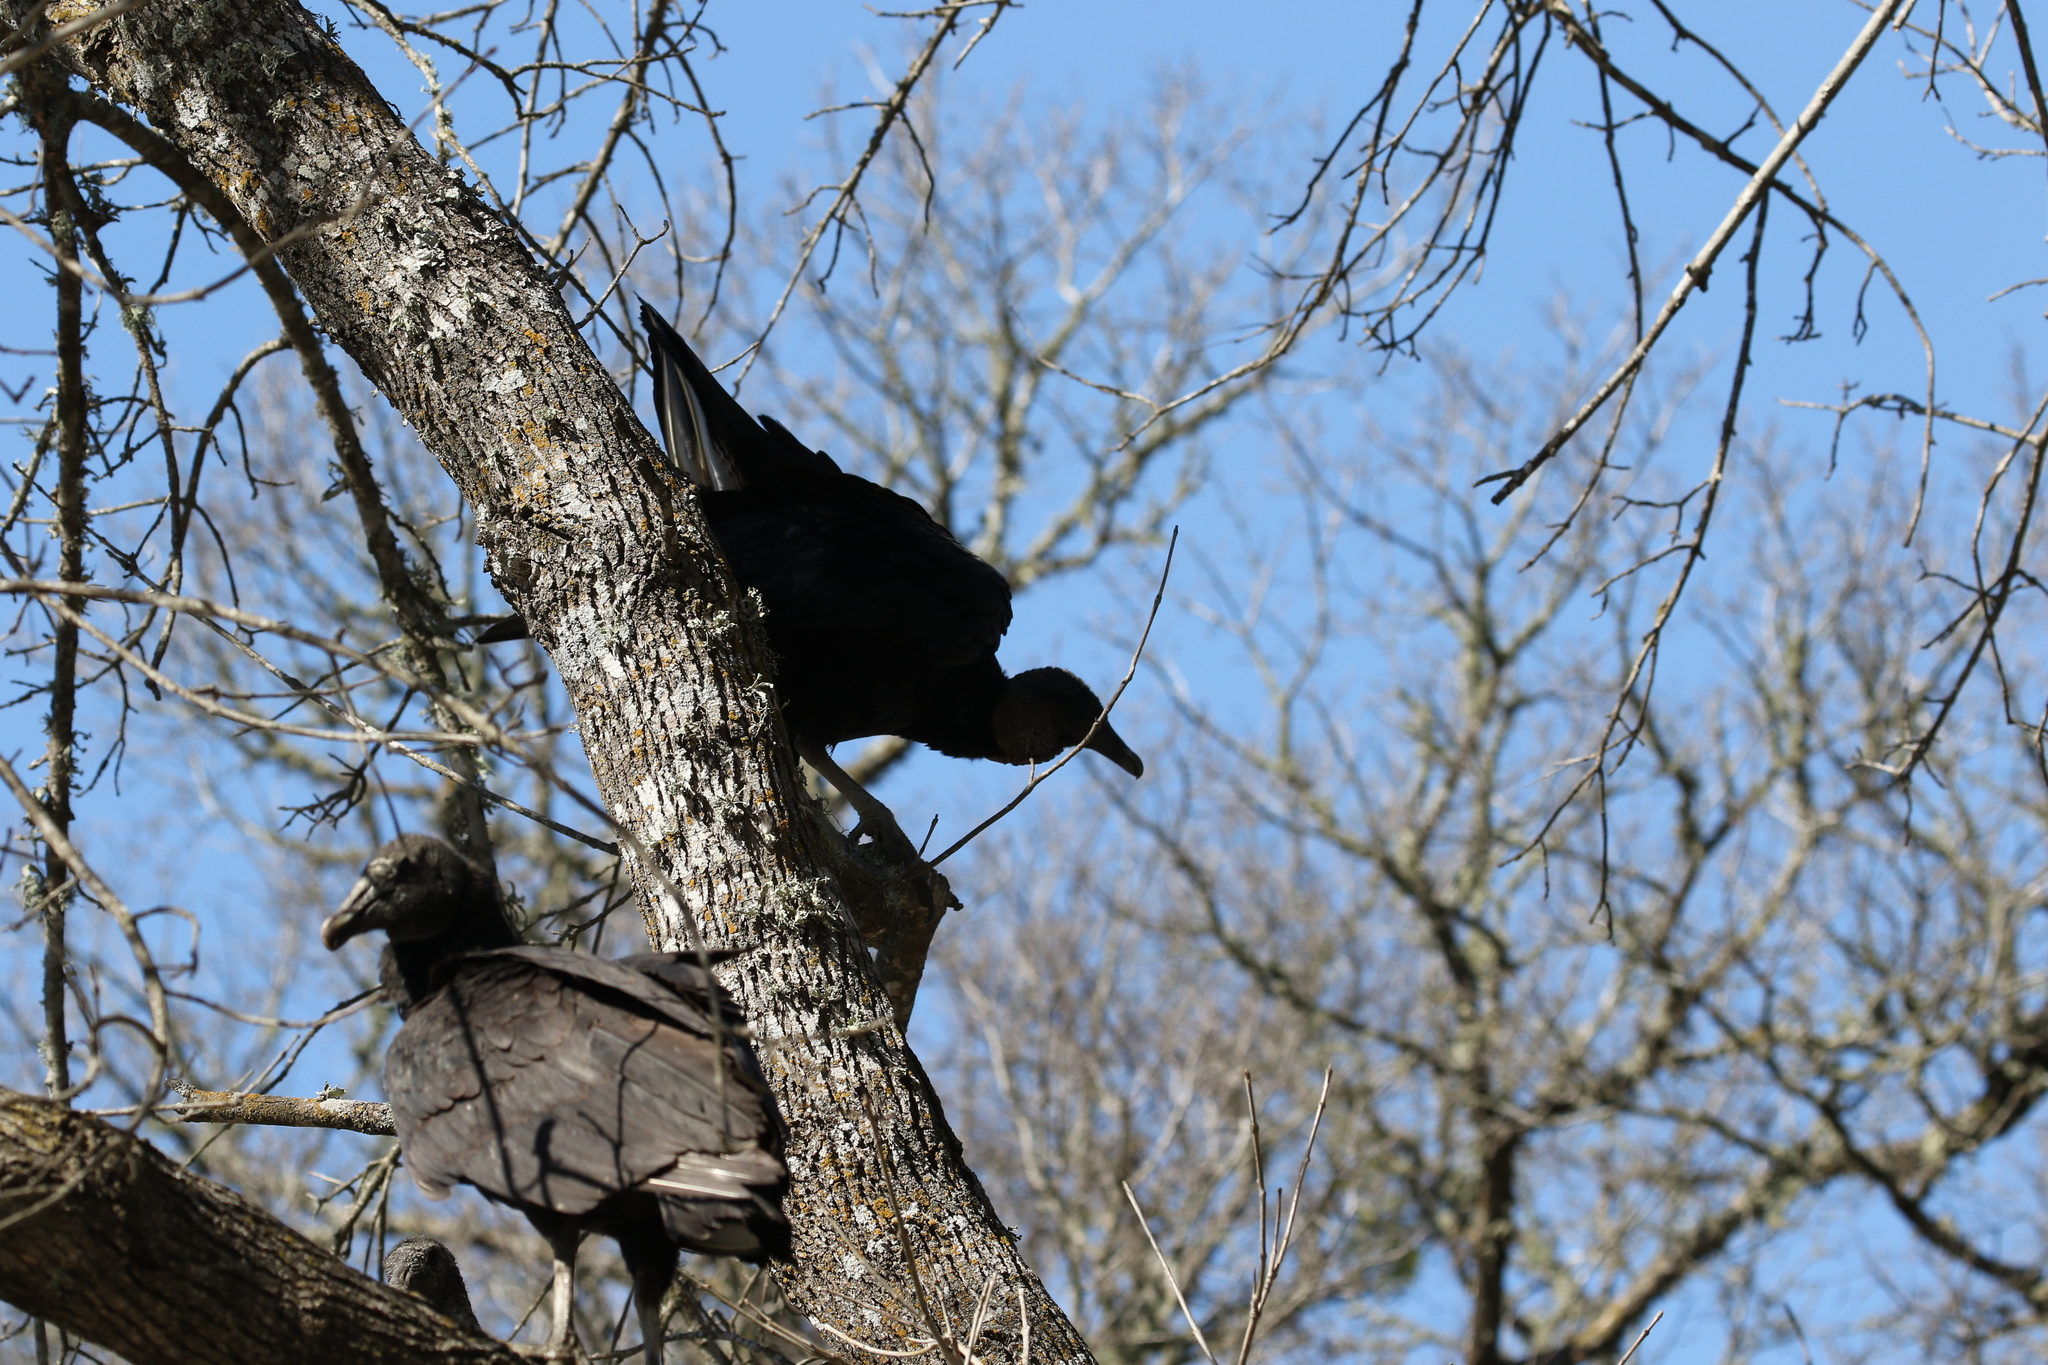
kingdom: Animalia
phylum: Chordata
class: Aves
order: Accipitriformes
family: Cathartidae
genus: Coragyps
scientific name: Coragyps atratus
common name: Black vulture
